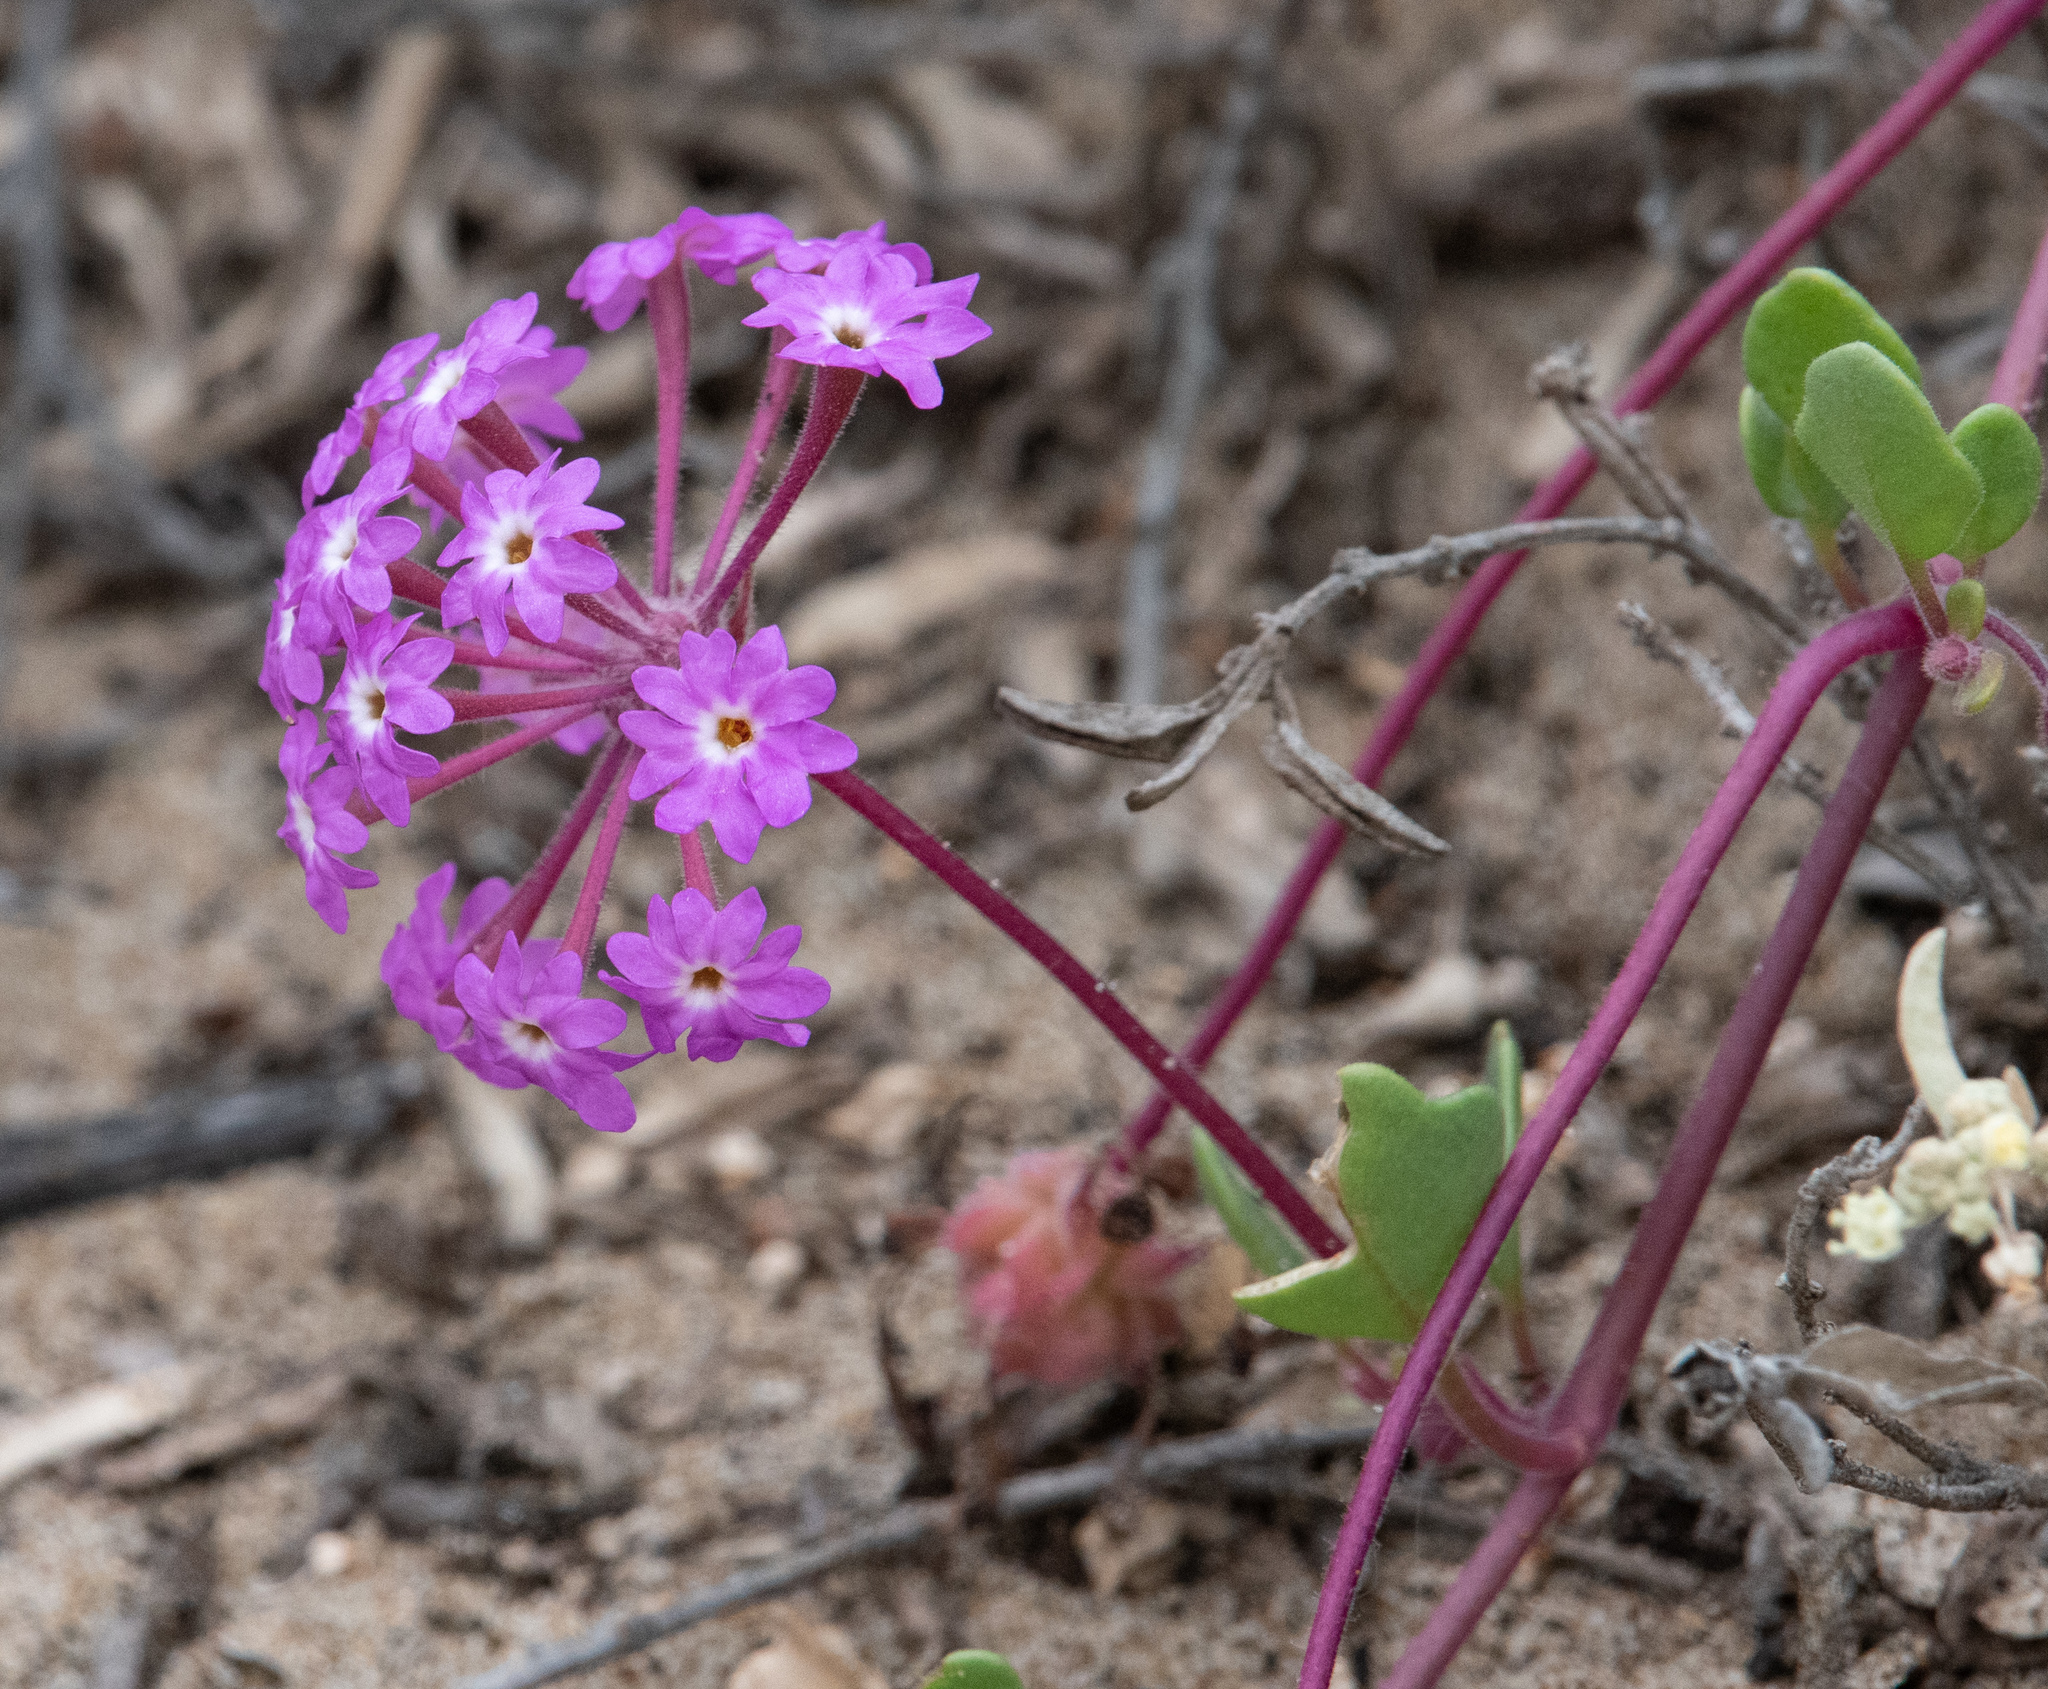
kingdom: Plantae
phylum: Tracheophyta
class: Magnoliopsida
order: Caryophyllales
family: Nyctaginaceae
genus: Abronia
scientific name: Abronia umbellata
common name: Sand-verbena
